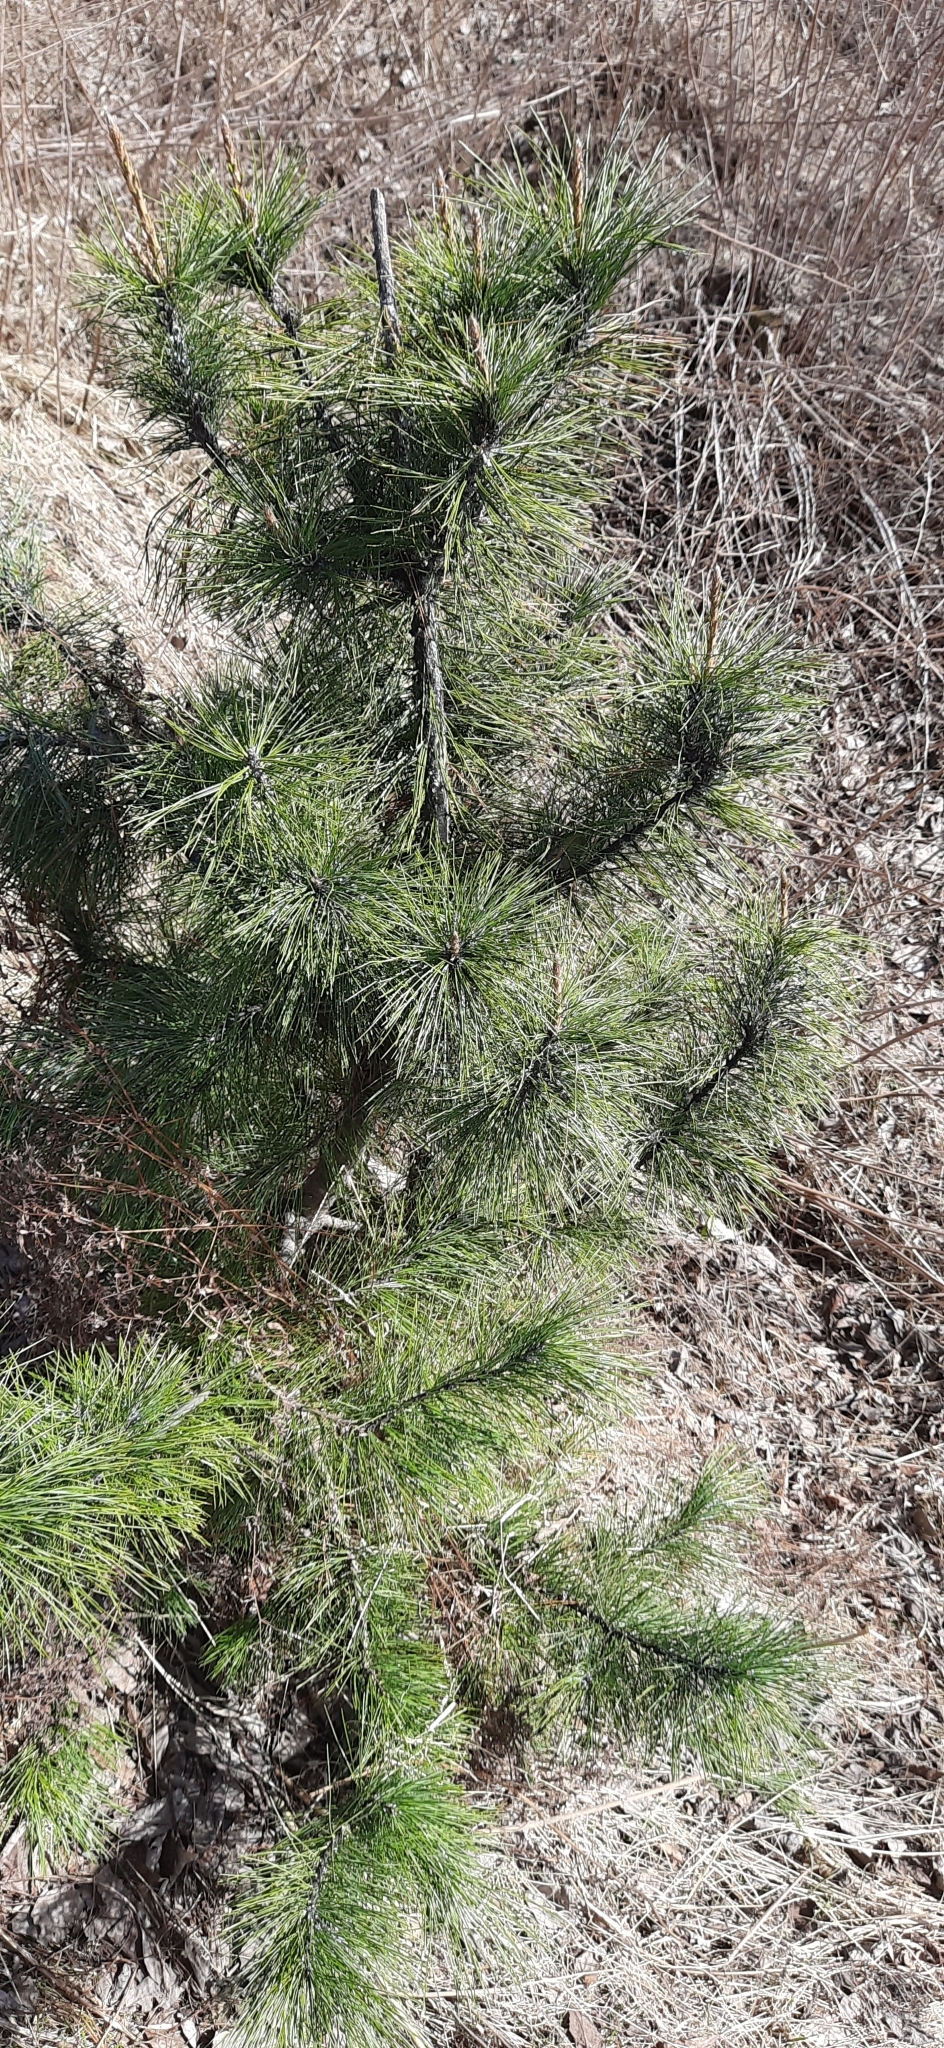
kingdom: Plantae
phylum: Tracheophyta
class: Pinopsida
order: Pinales
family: Pinaceae
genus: Pinus
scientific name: Pinus sibirica
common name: Siberian pine
